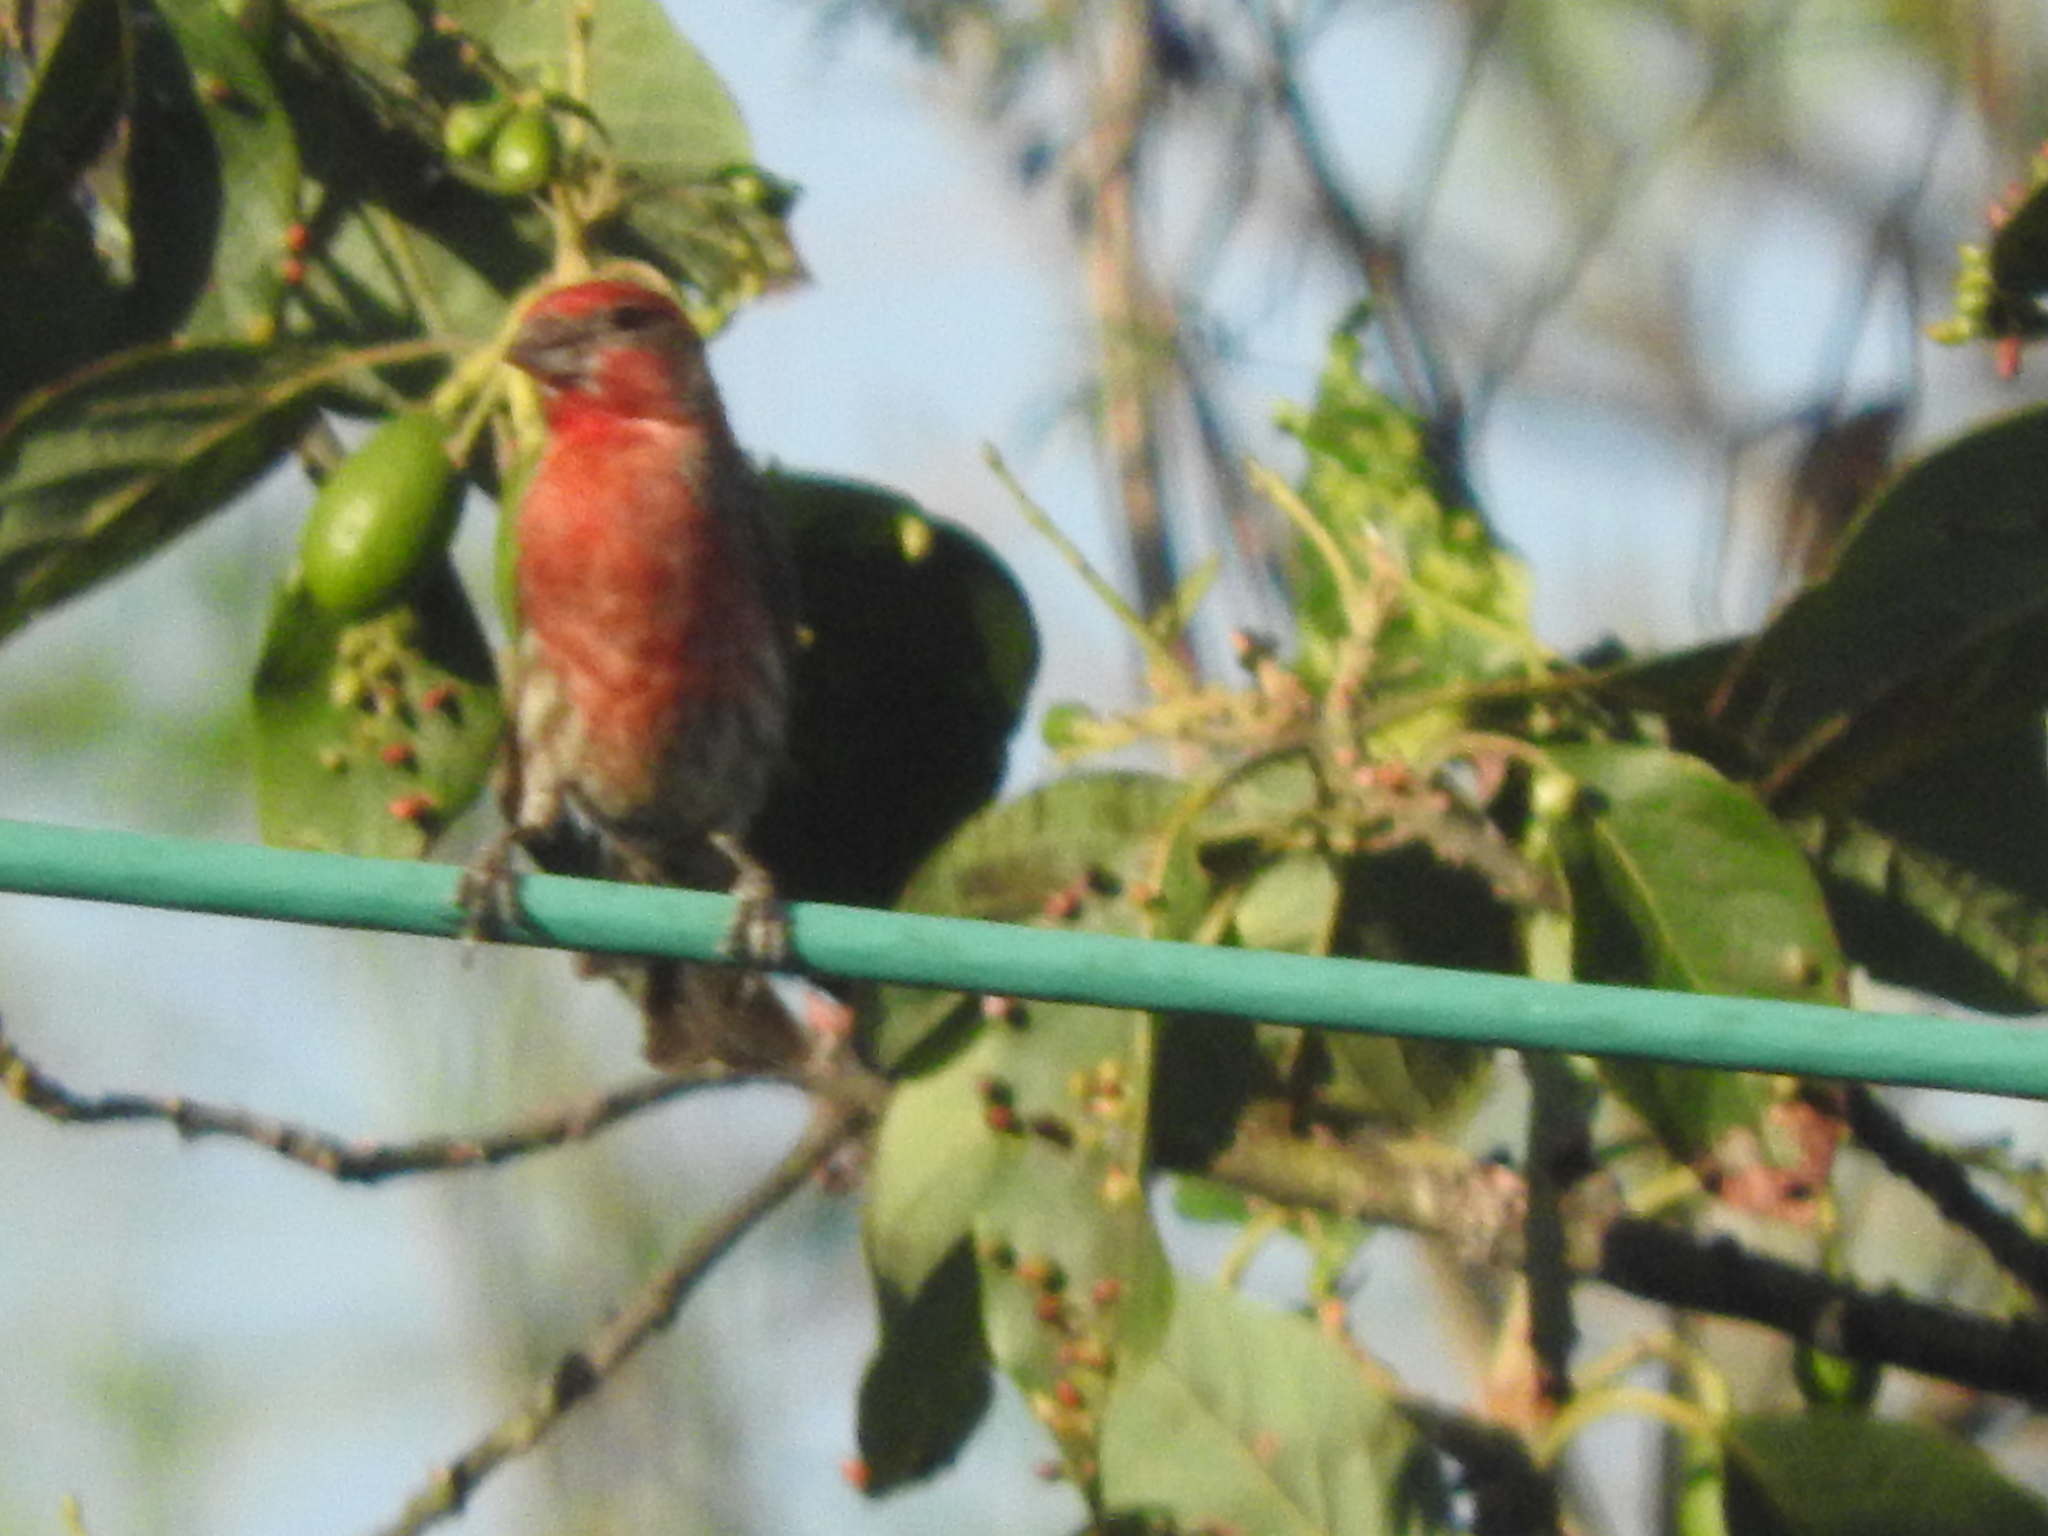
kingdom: Animalia
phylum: Chordata
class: Aves
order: Passeriformes
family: Fringillidae
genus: Haemorhous
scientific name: Haemorhous mexicanus
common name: House finch
